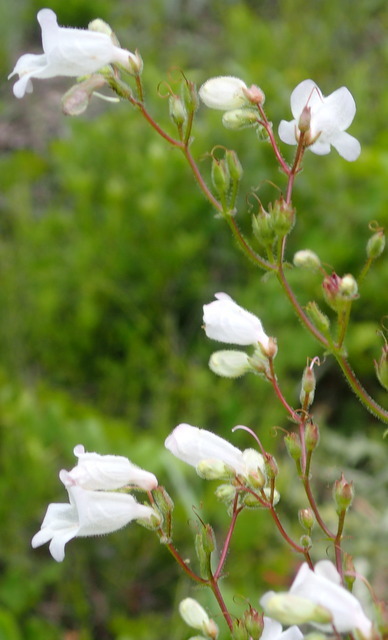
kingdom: Plantae
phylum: Tracheophyta
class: Magnoliopsida
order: Lamiales
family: Plantaginaceae
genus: Penstemon
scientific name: Penstemon multiflorus
